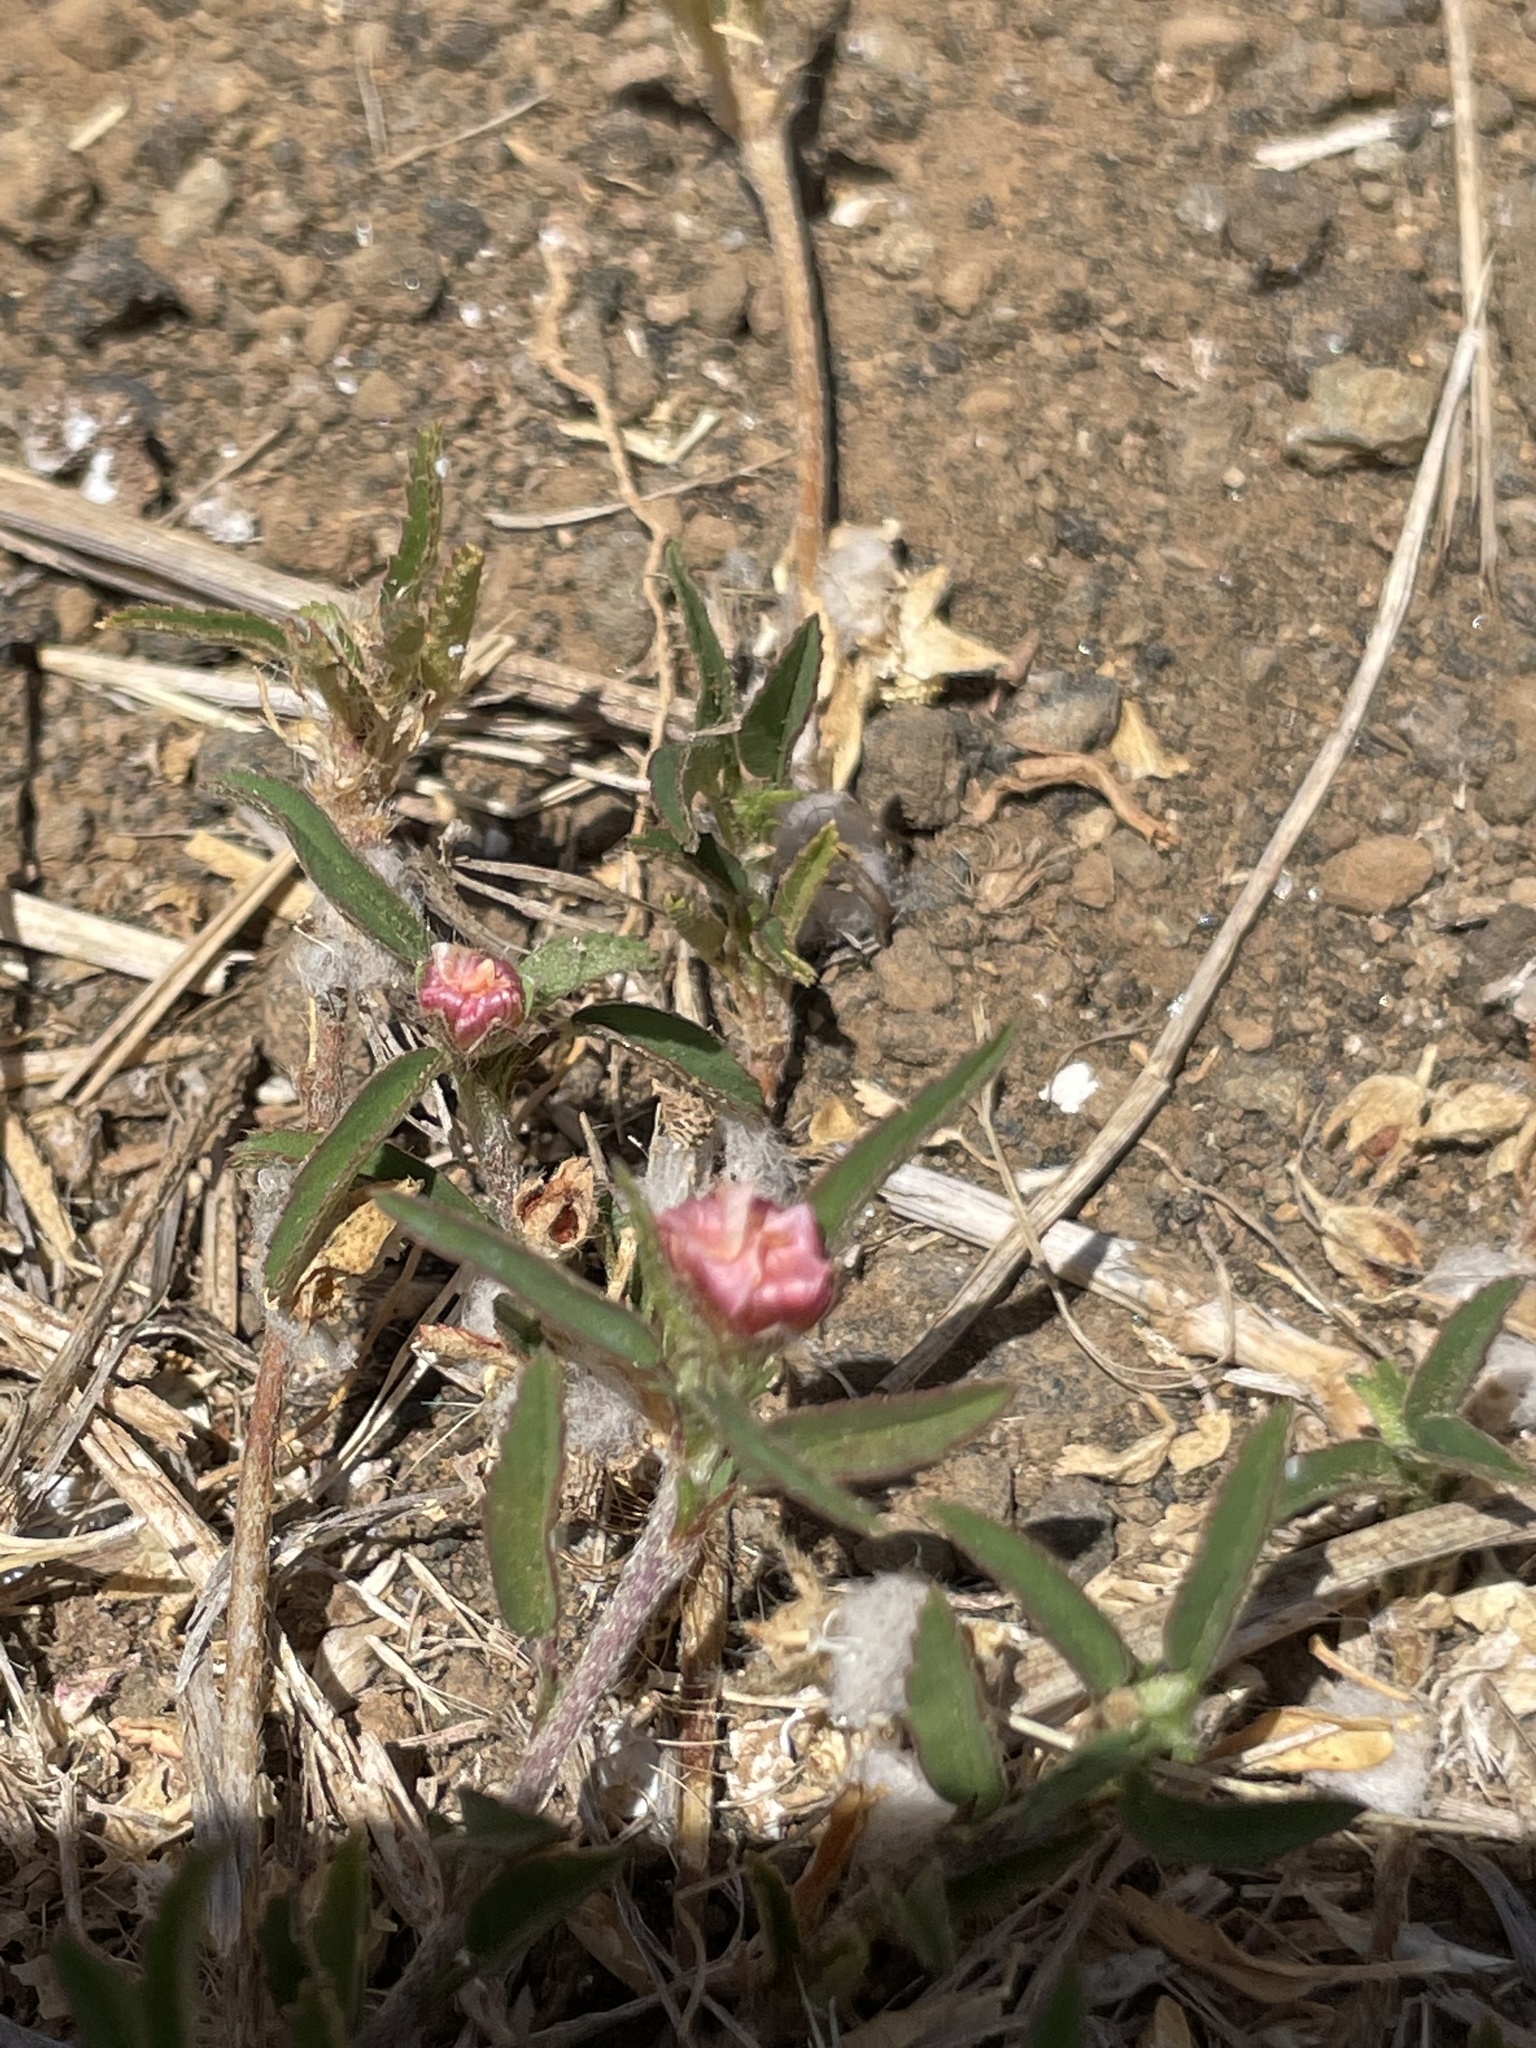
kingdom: Plantae
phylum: Tracheophyta
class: Magnoliopsida
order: Malvales
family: Malvaceae
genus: Sida
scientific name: Sida ciliaris
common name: Bracted fanpetals
